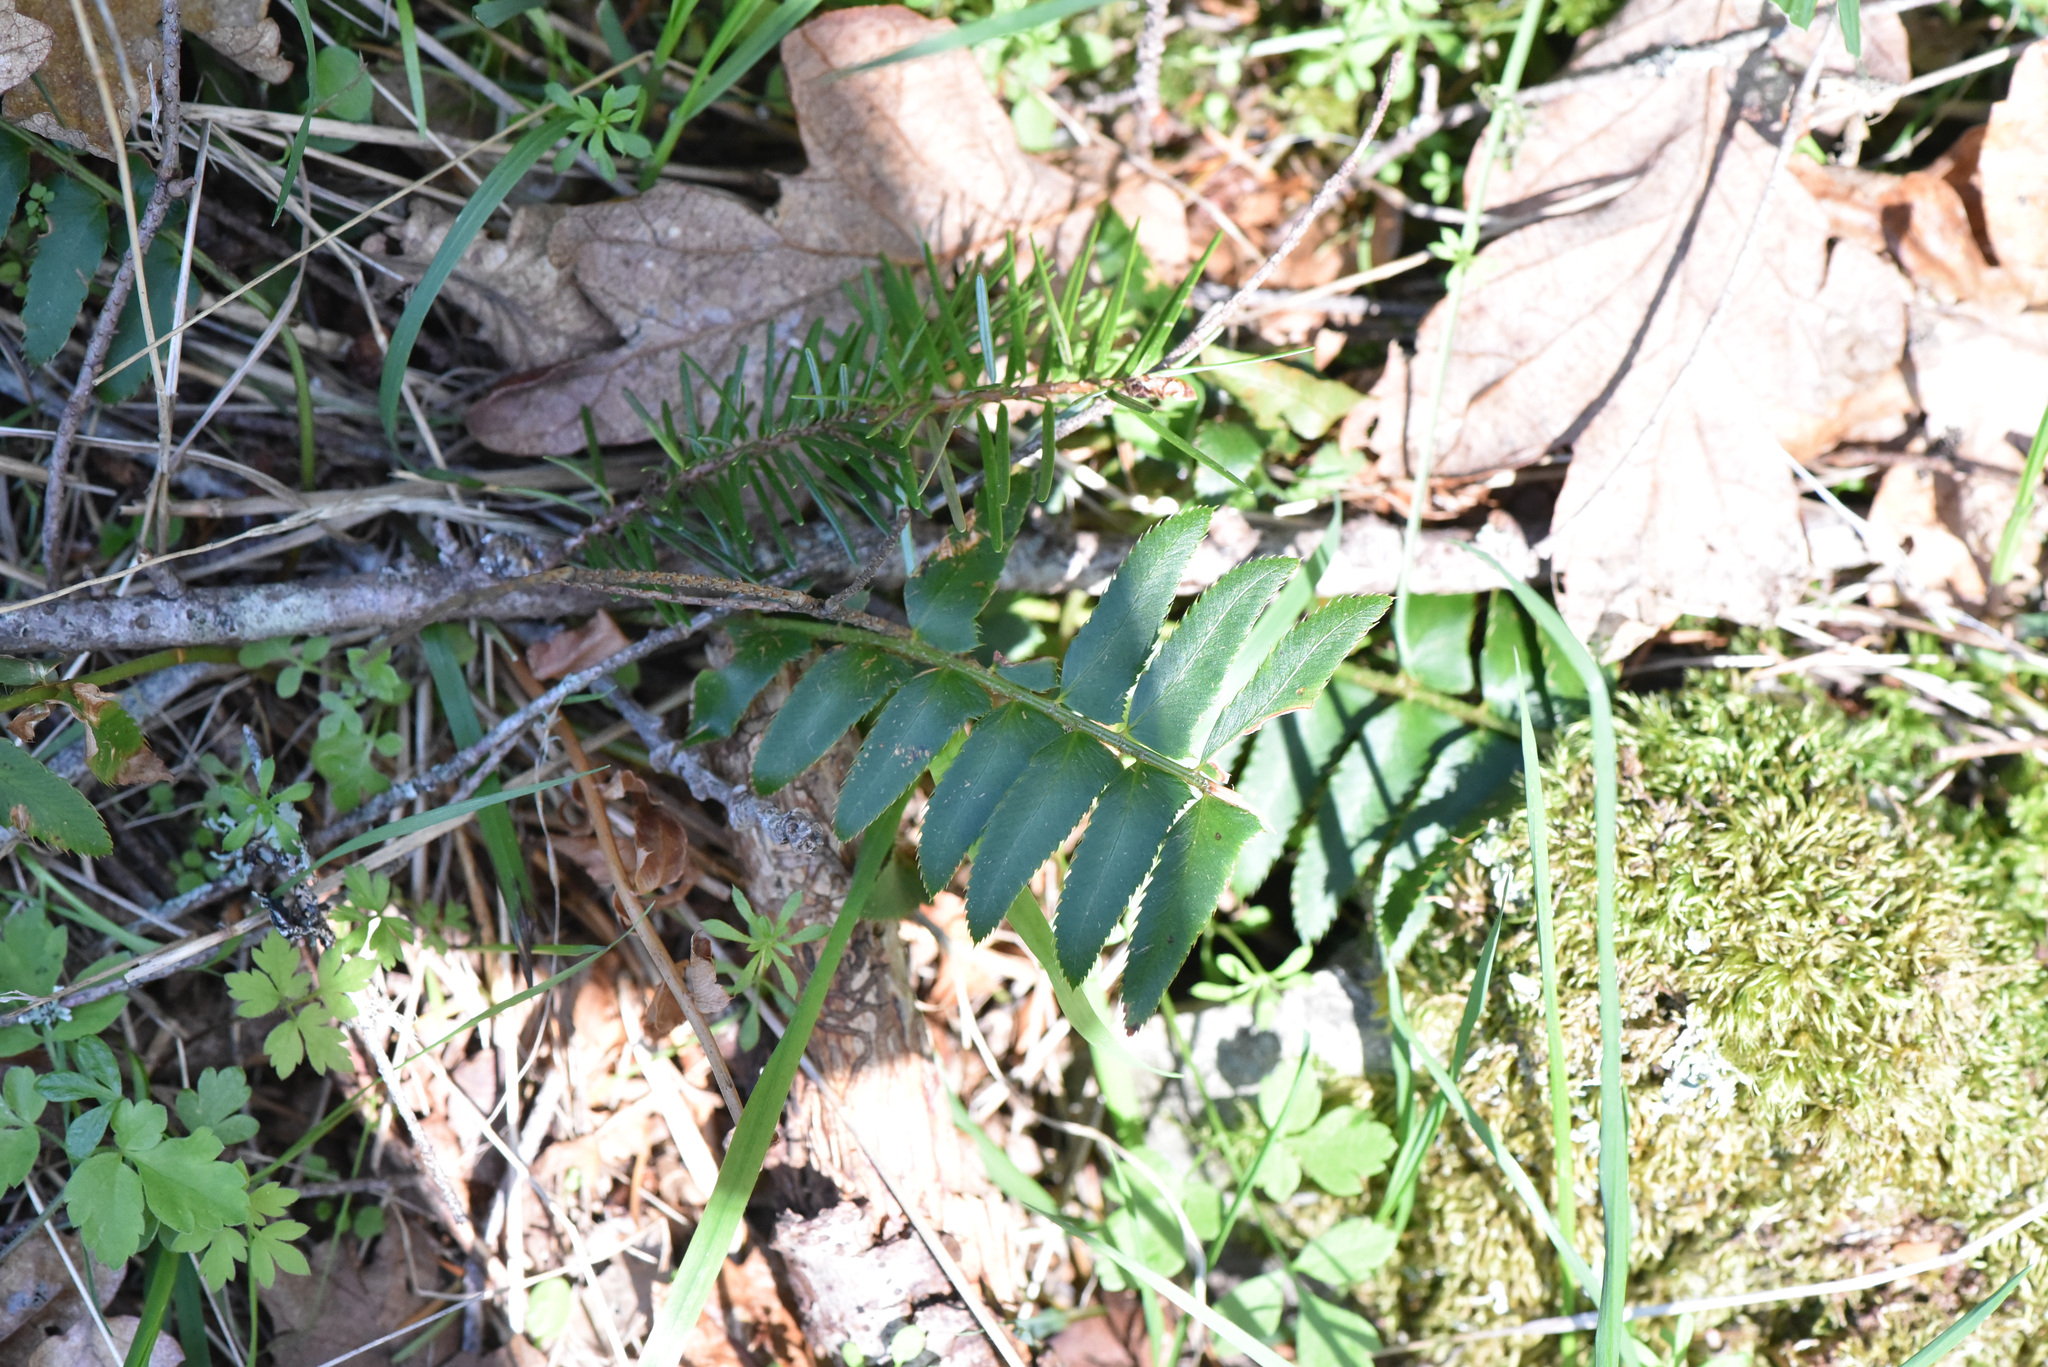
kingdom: Plantae
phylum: Tracheophyta
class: Polypodiopsida
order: Polypodiales
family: Dryopteridaceae
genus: Polystichum
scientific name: Polystichum munitum
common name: Western sword-fern
